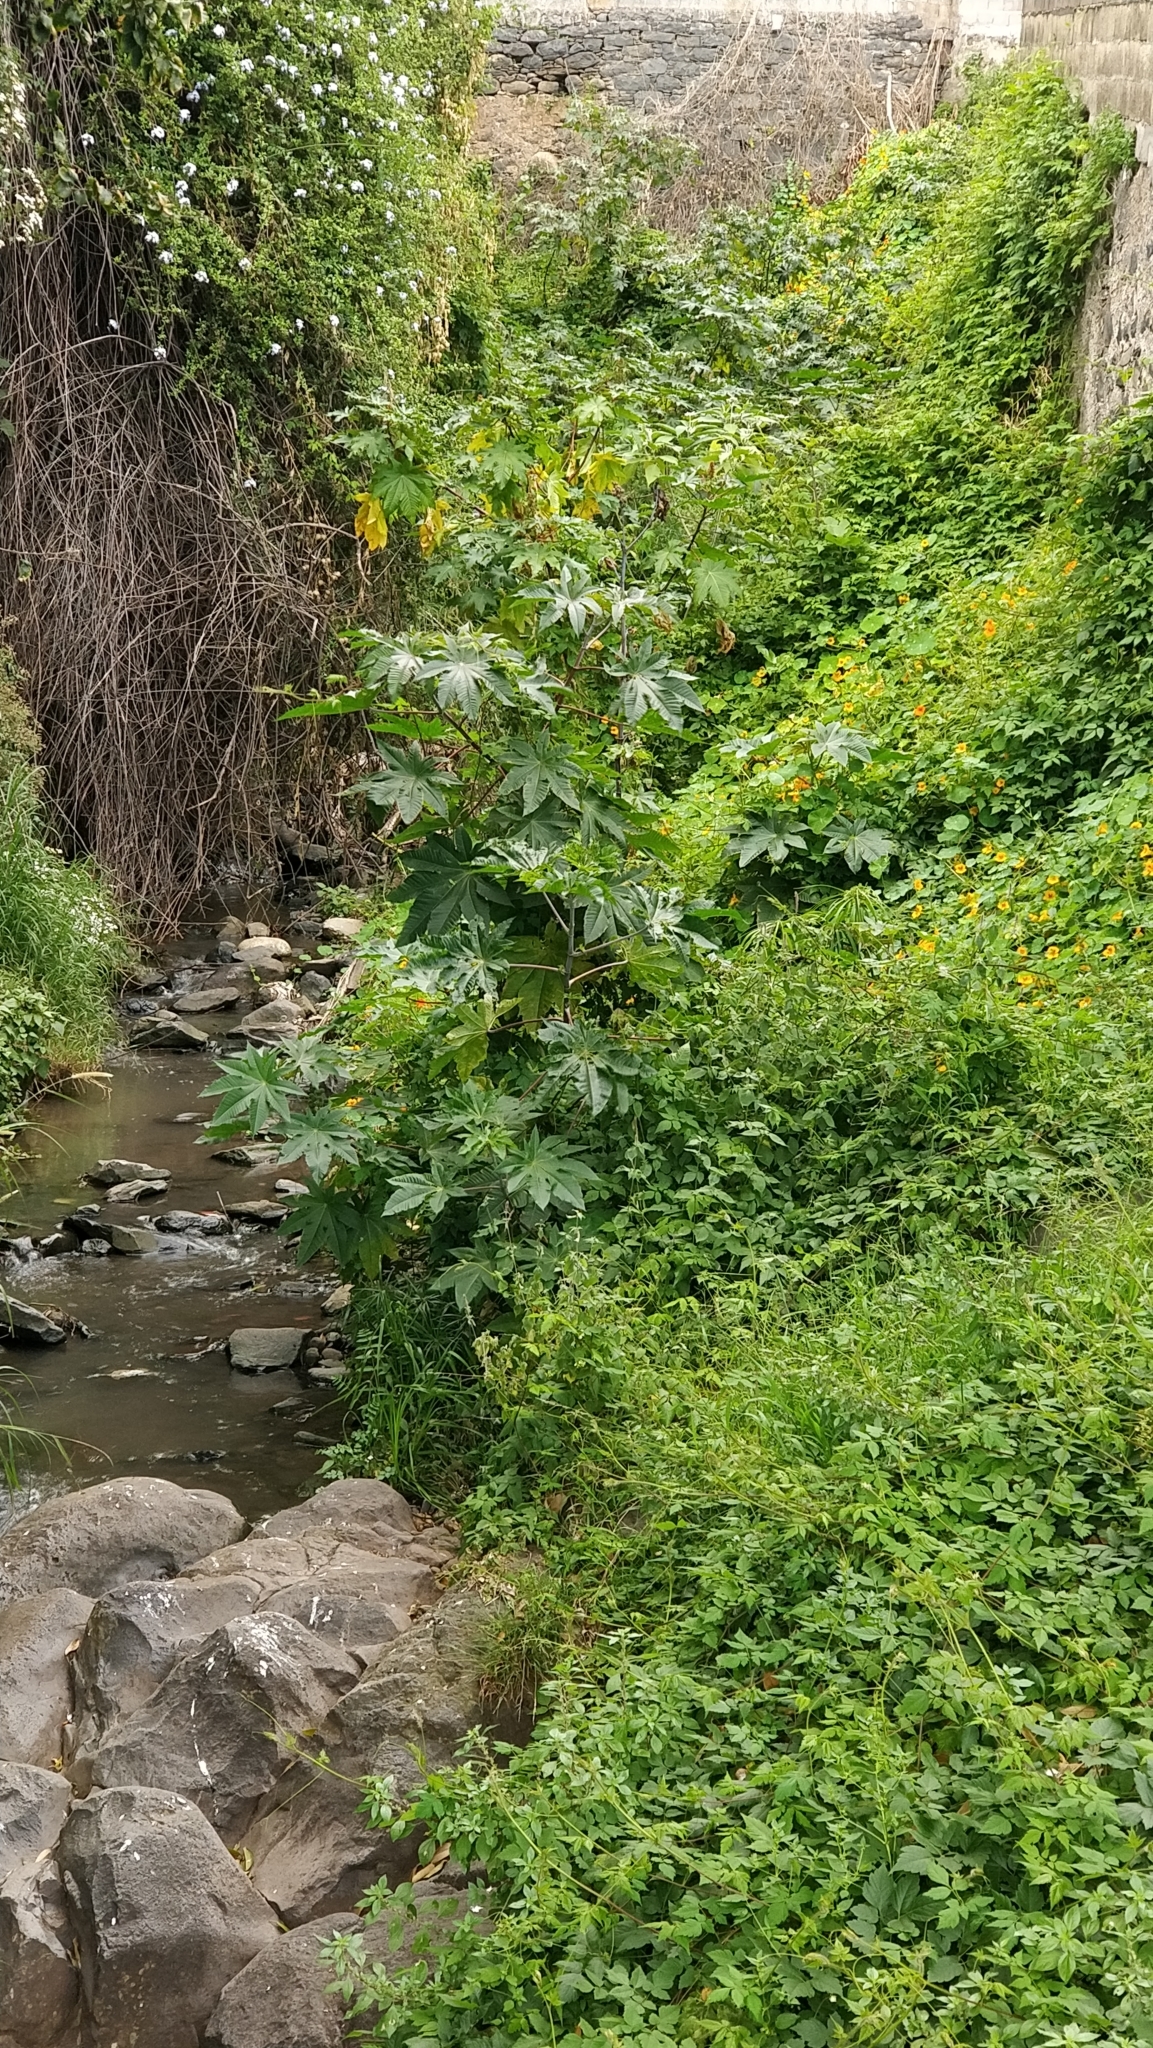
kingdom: Plantae
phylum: Tracheophyta
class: Magnoliopsida
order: Malpighiales
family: Euphorbiaceae
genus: Ricinus
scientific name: Ricinus communis
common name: Castor-oil-plant
